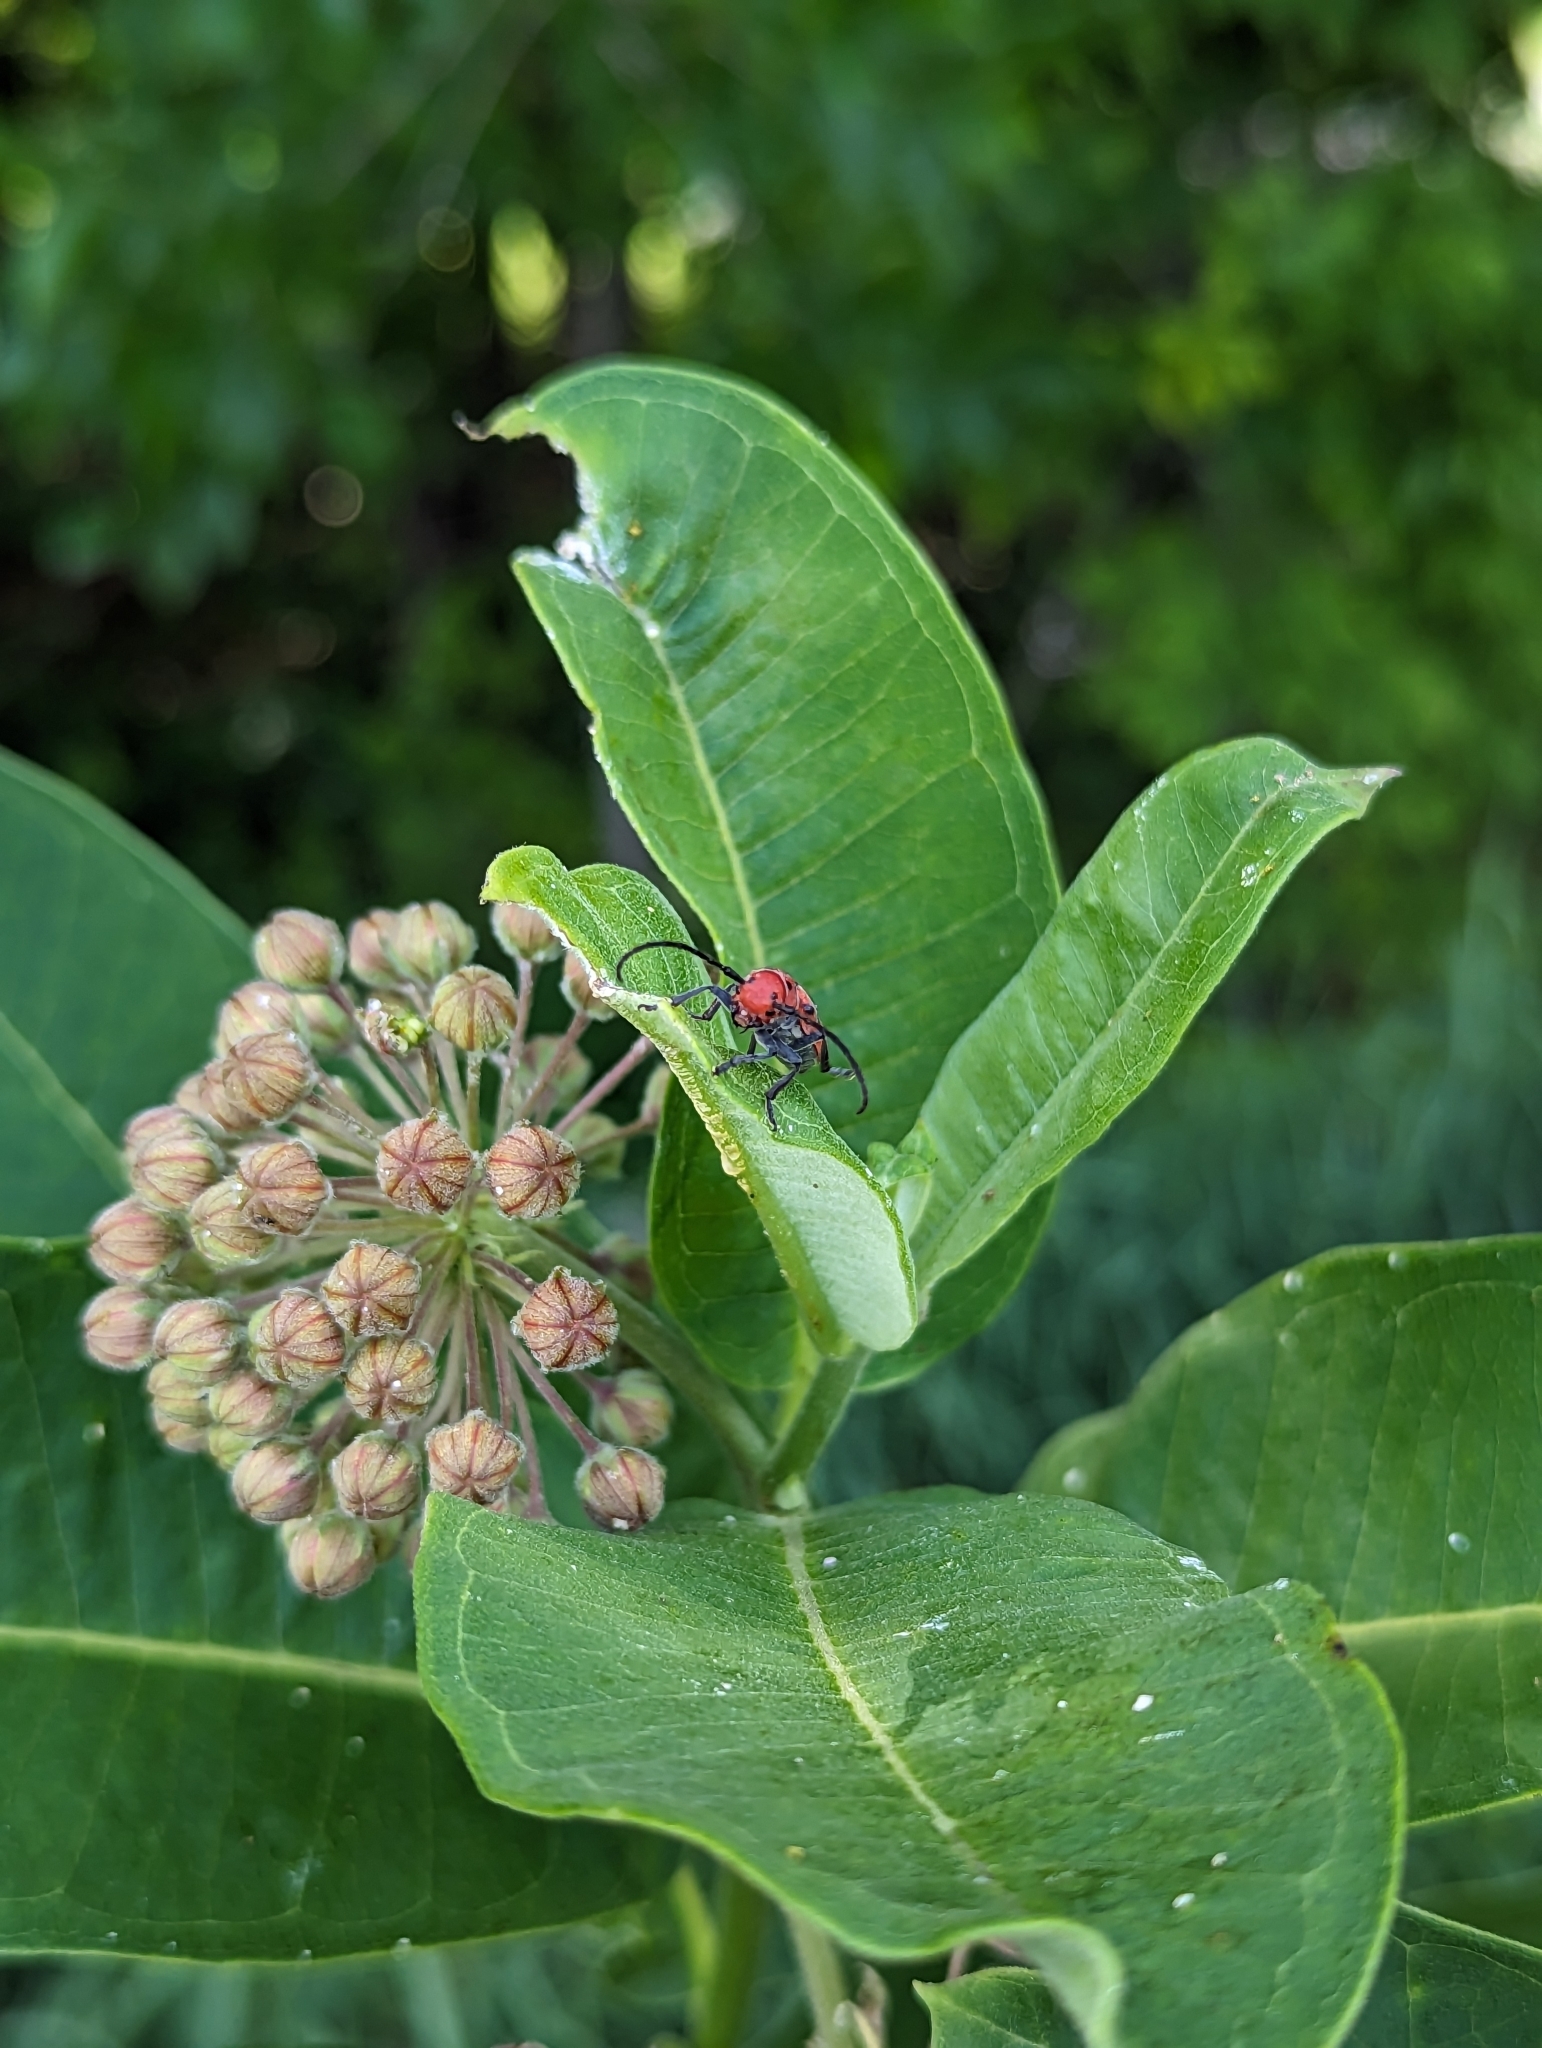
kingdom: Animalia
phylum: Arthropoda
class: Insecta
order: Coleoptera
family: Cerambycidae
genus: Tetraopes
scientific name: Tetraopes tetrophthalmus
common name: Red milkweed beetle
